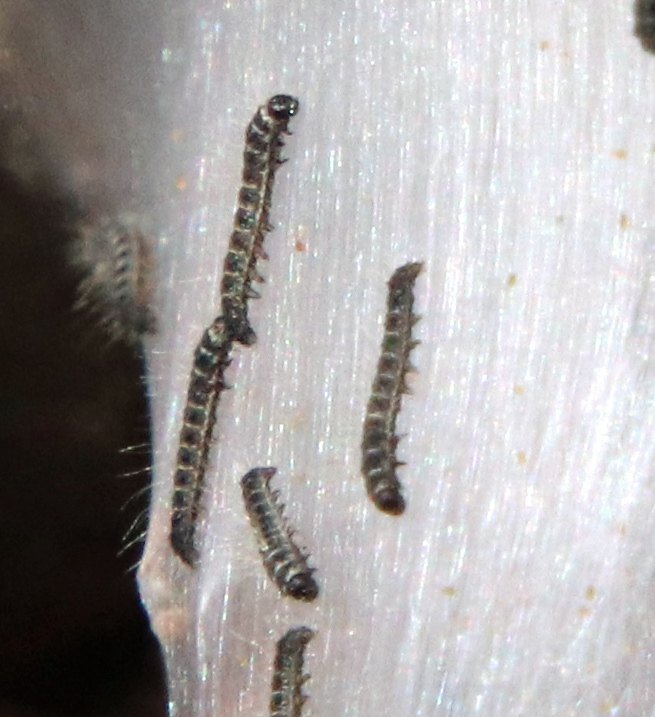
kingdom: Animalia
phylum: Arthropoda
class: Insecta
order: Lepidoptera
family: Lasiocampidae
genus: Malacosoma
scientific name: Malacosoma americana
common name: Eastern tent caterpillar moth
